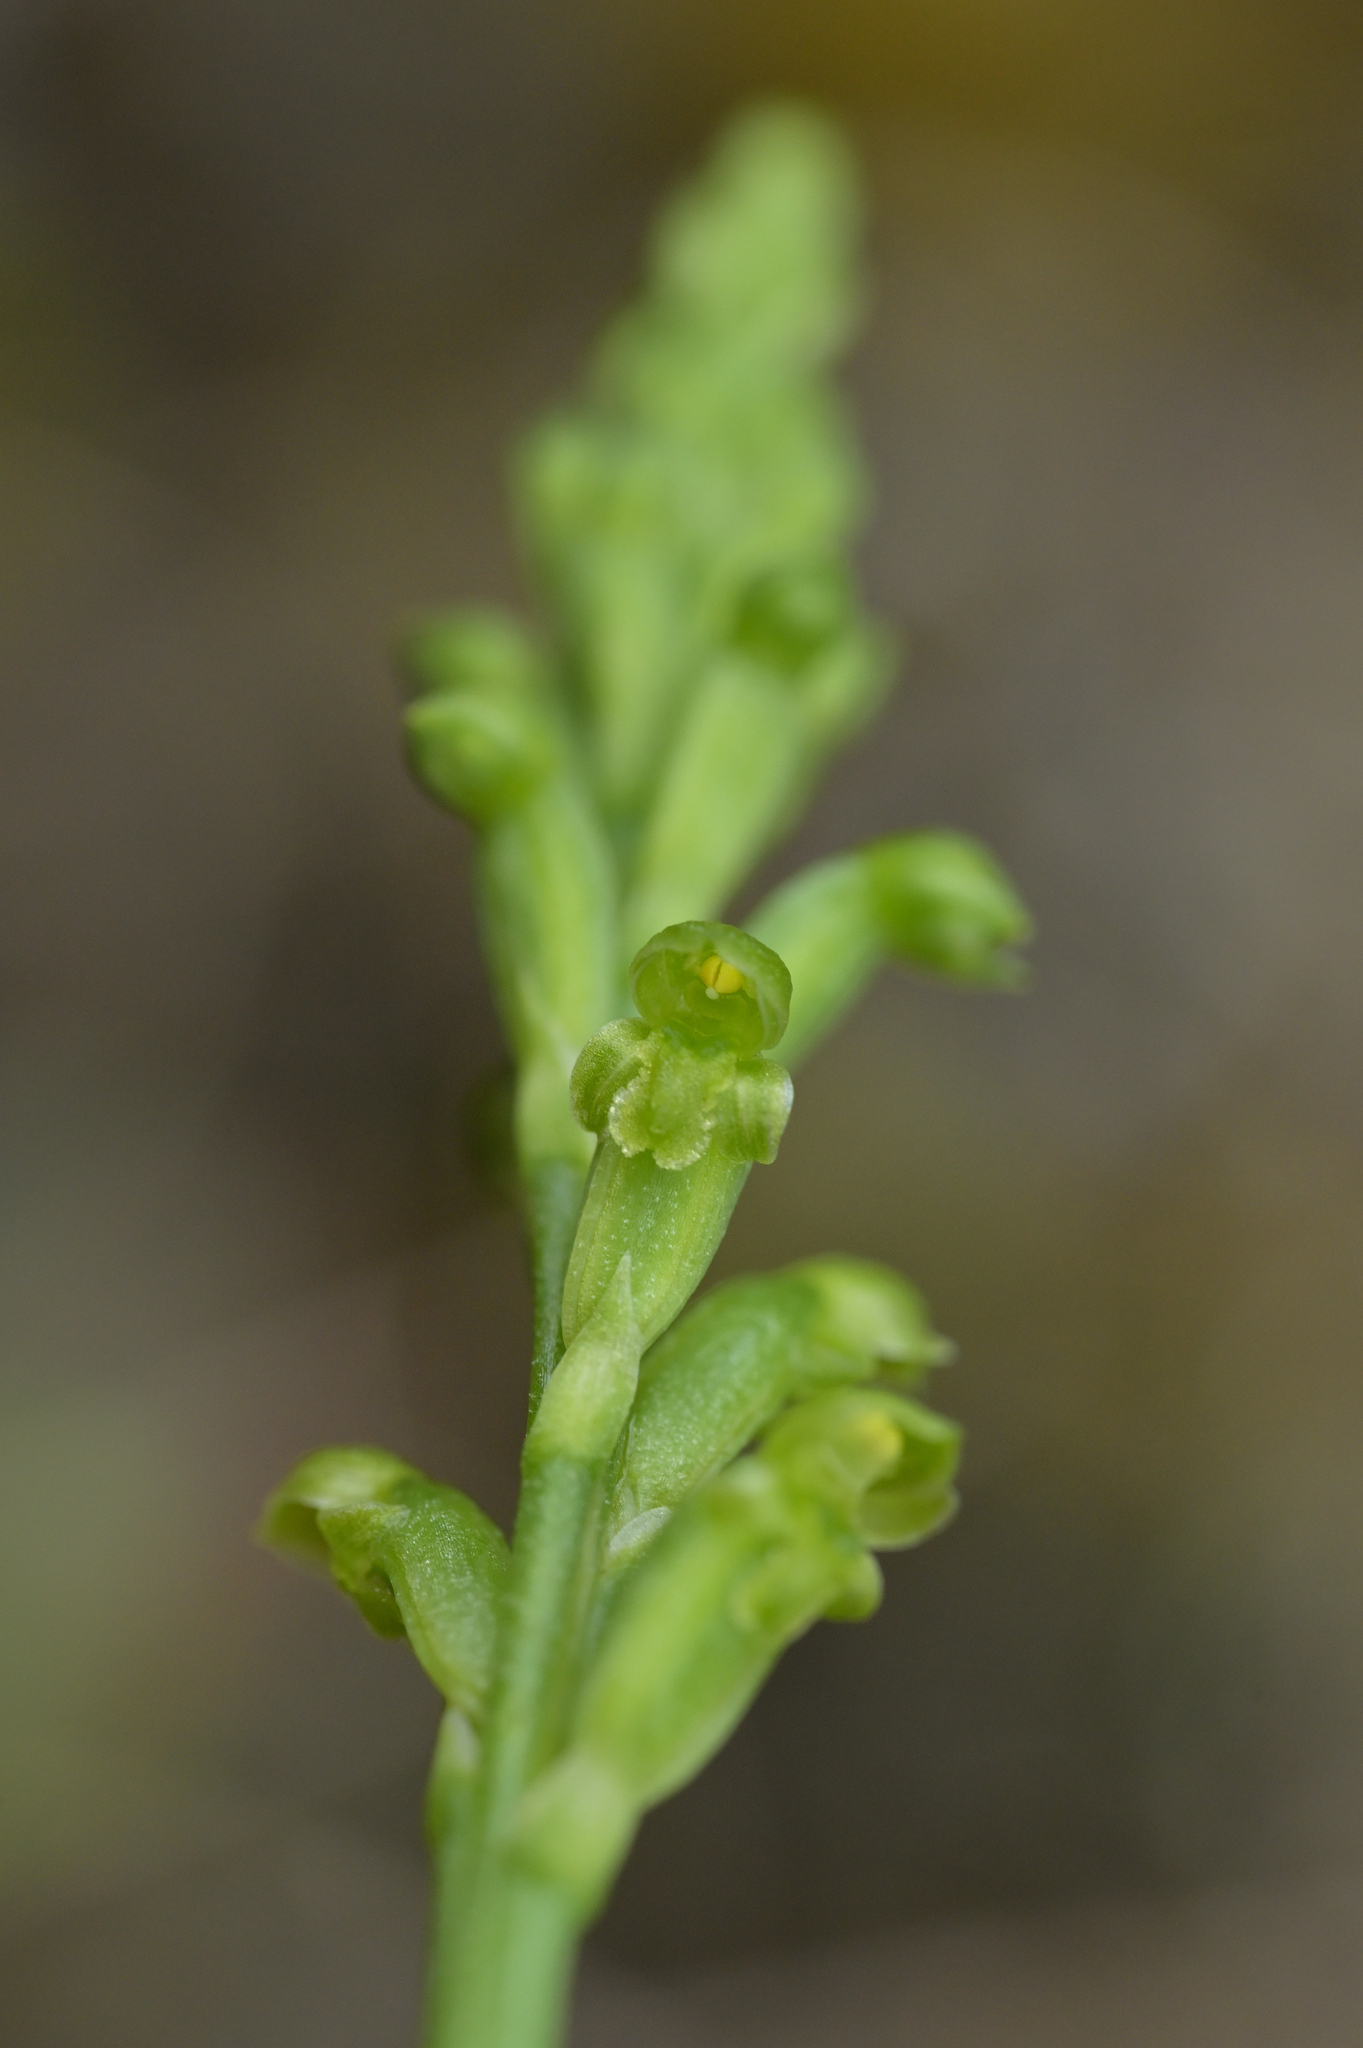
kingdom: Plantae
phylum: Tracheophyta
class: Liliopsida
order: Asparagales
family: Orchidaceae
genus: Microtis
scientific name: Microtis unifolia
